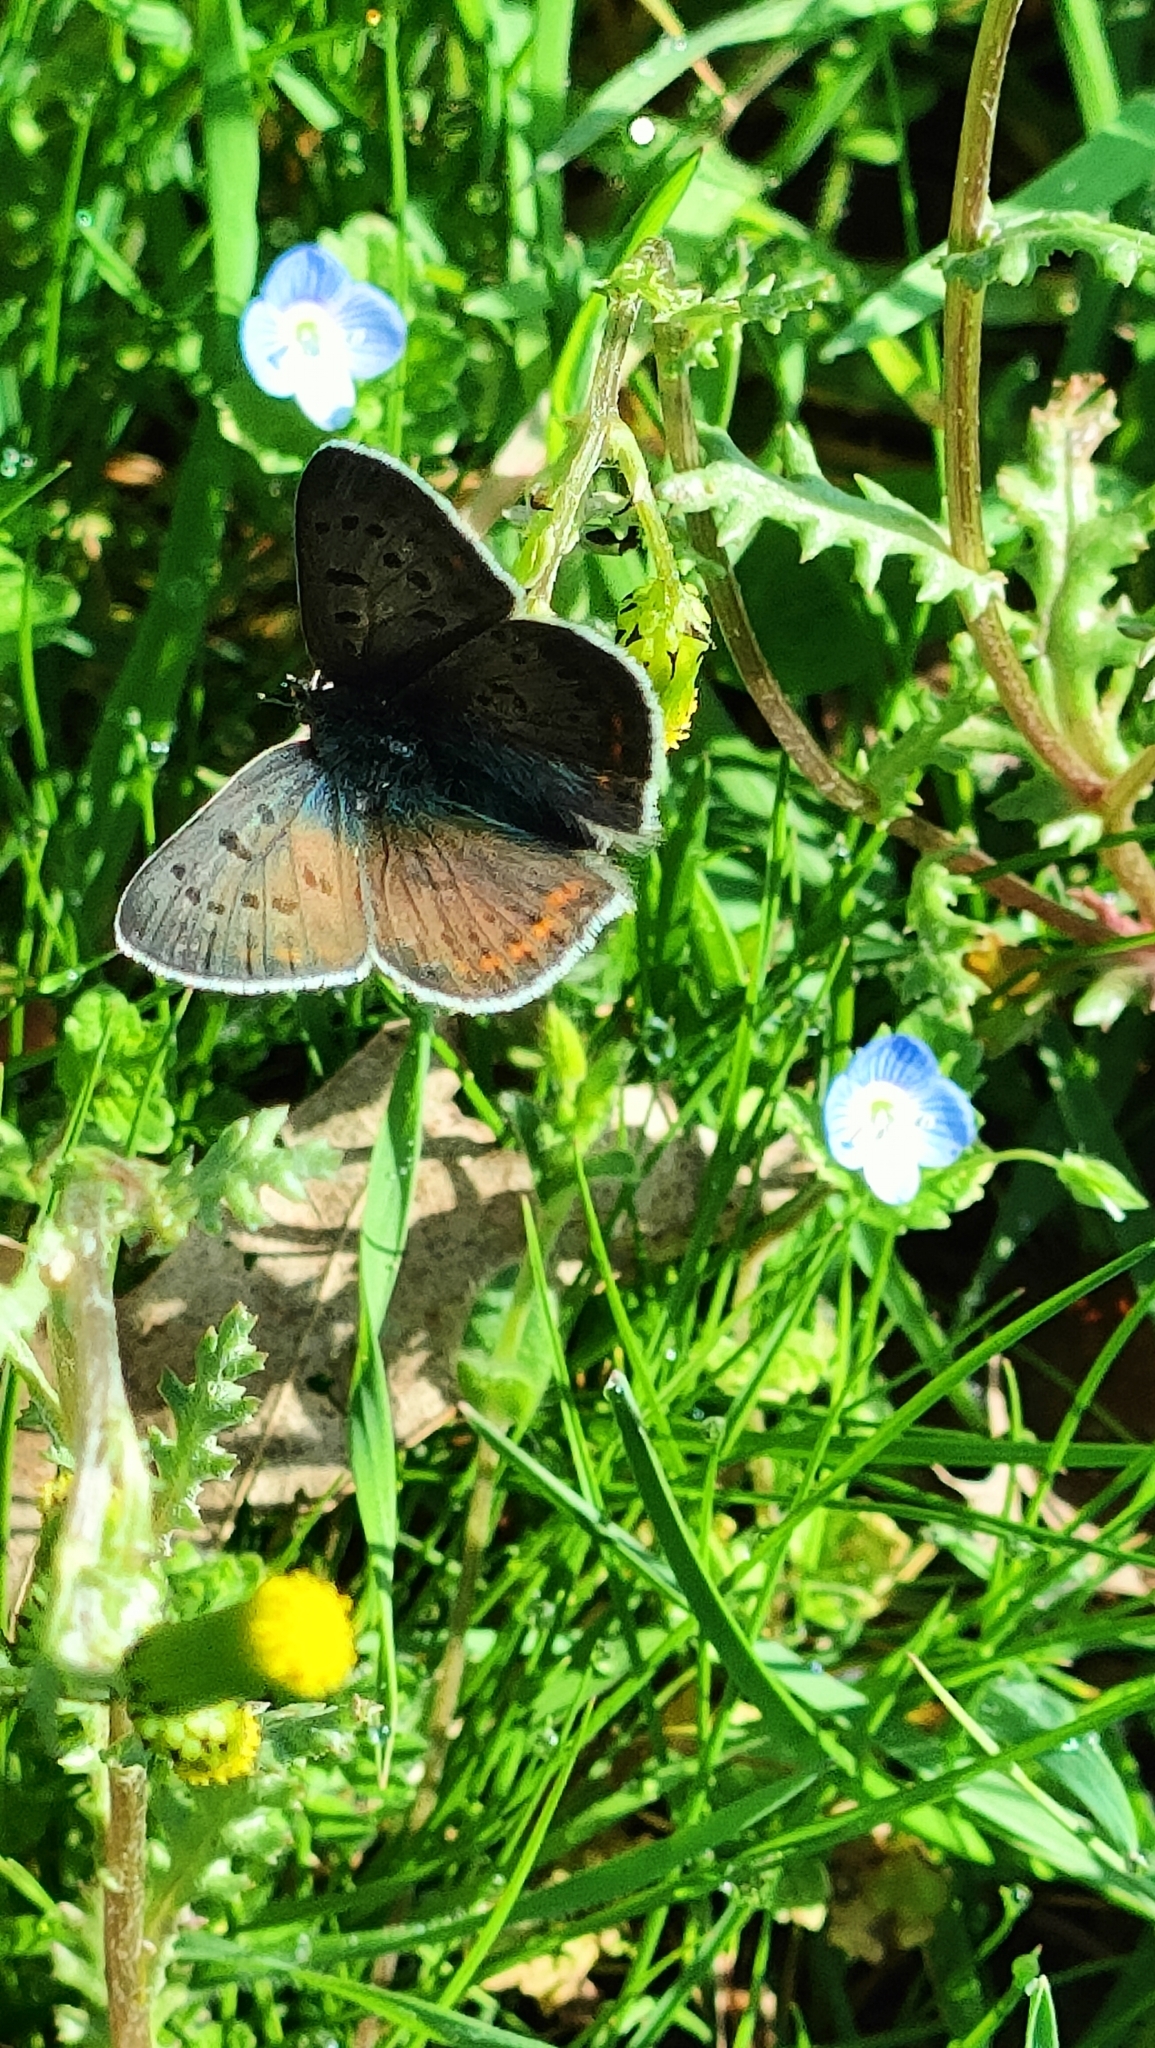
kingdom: Animalia
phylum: Arthropoda
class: Insecta
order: Lepidoptera
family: Lycaenidae
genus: Loweia
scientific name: Loweia tityrus
